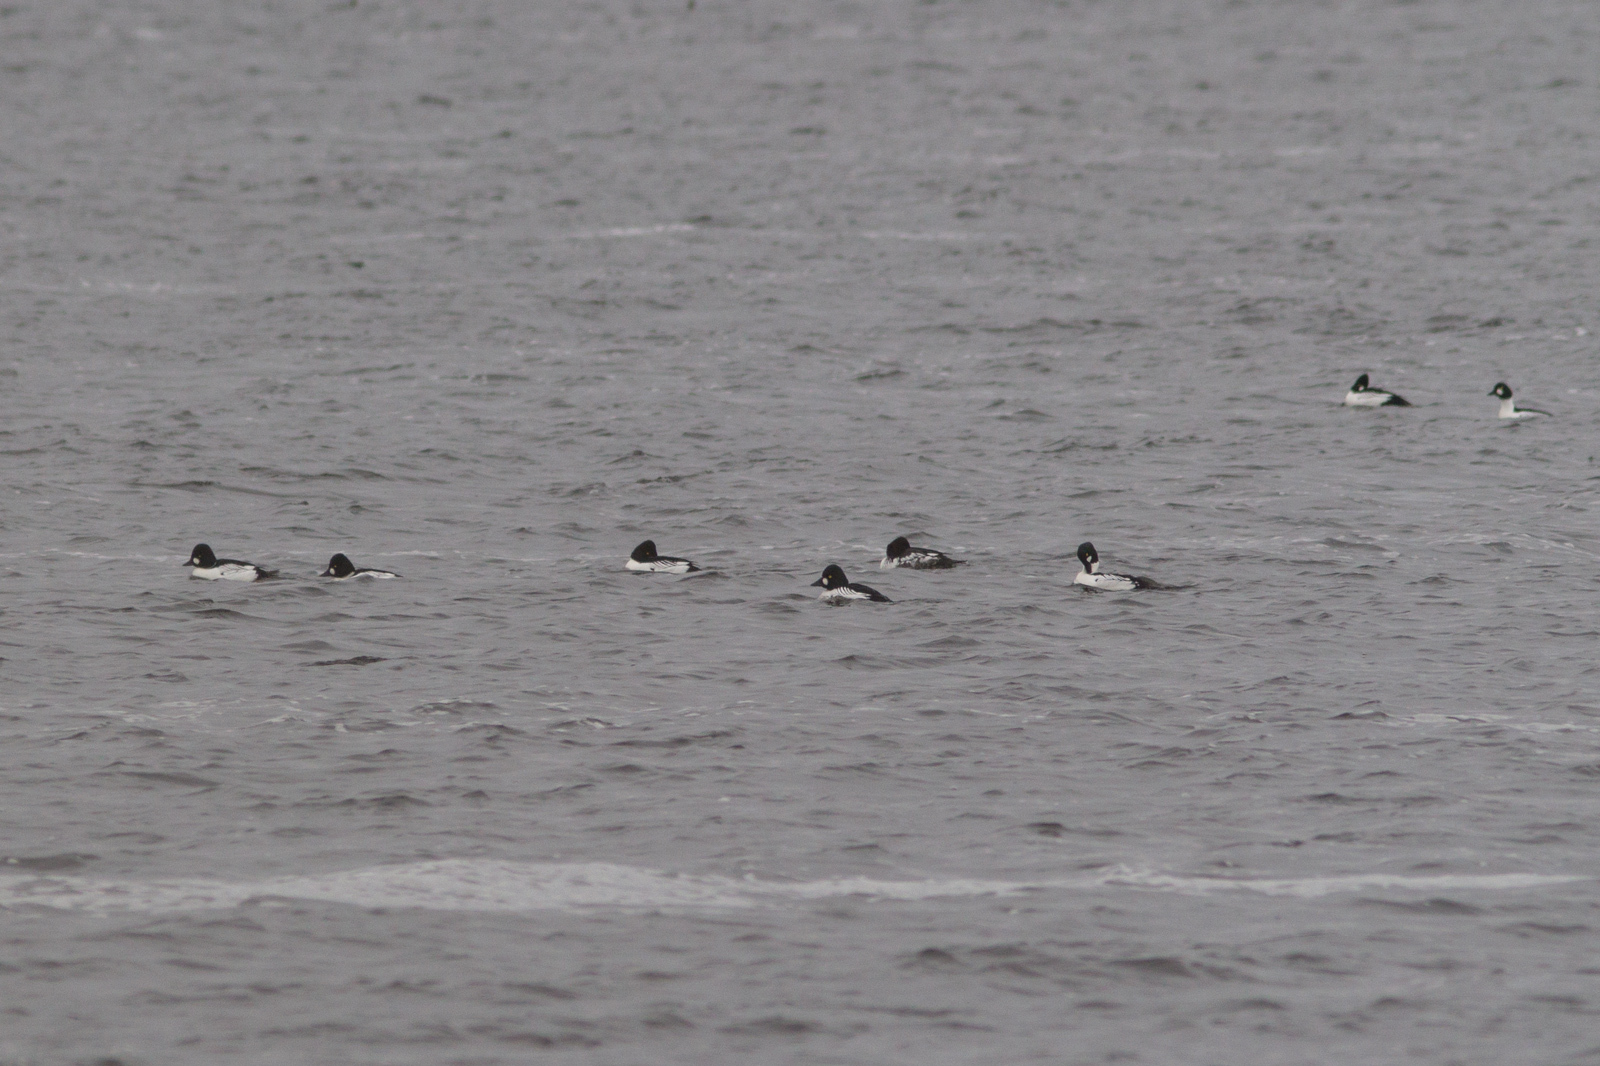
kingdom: Animalia
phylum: Chordata
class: Aves
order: Anseriformes
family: Anatidae
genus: Bucephala
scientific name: Bucephala clangula
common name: Common goldeneye
